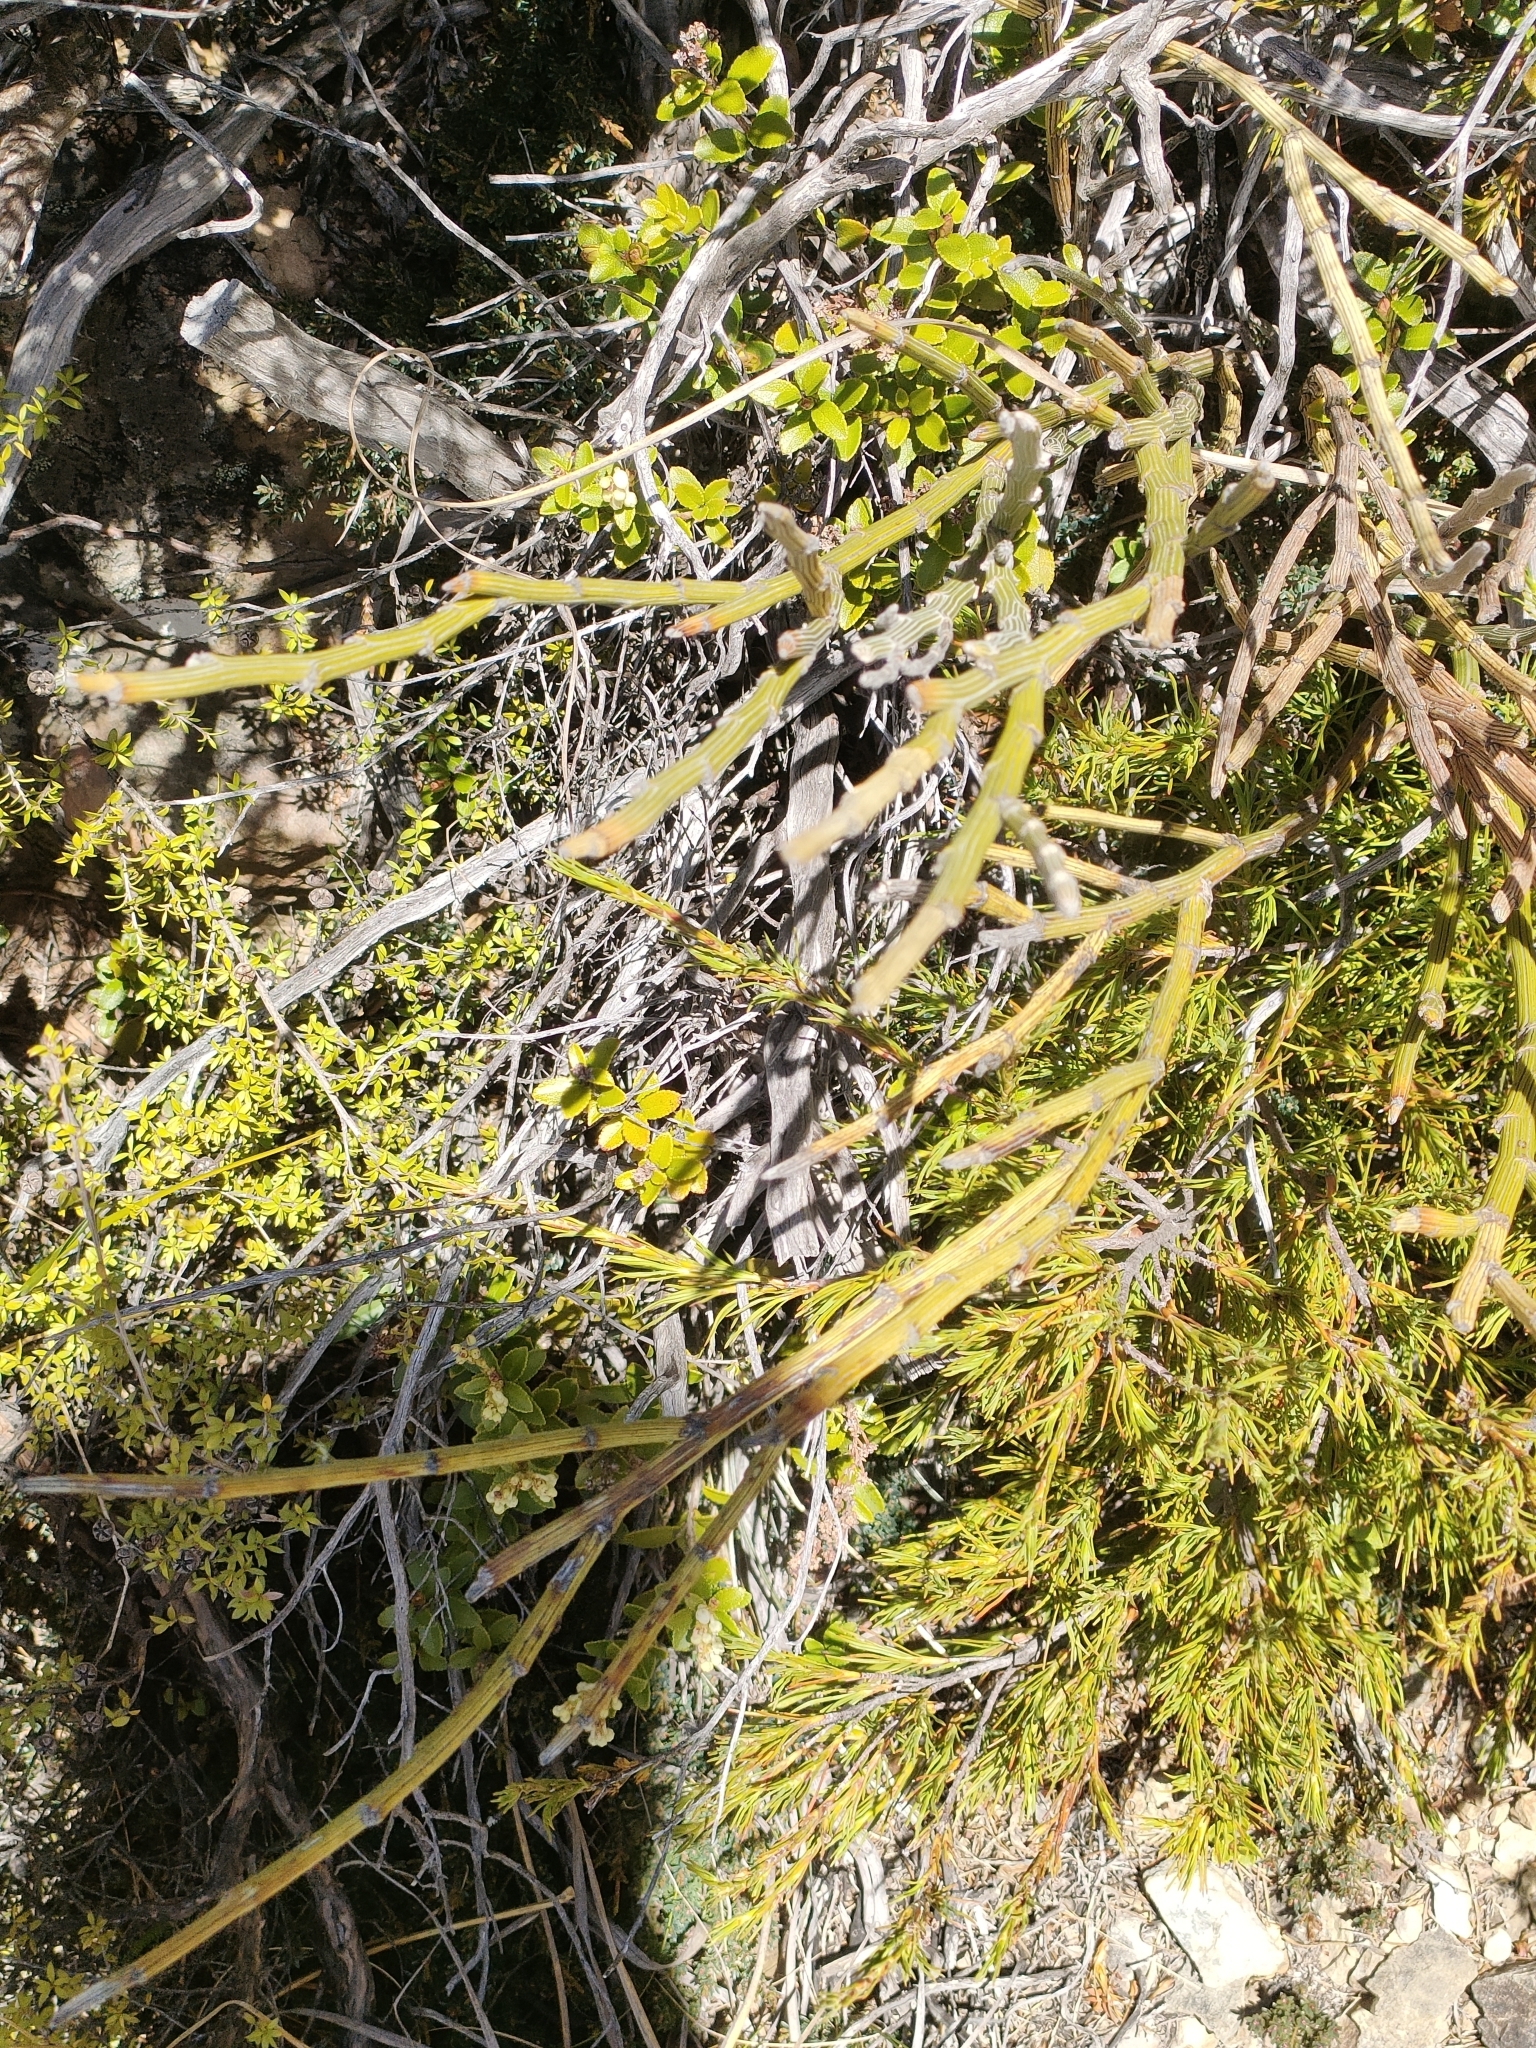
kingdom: Plantae
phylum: Tracheophyta
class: Magnoliopsida
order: Fabales
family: Fabaceae
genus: Carmichaelia
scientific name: Carmichaelia crassicaulis
